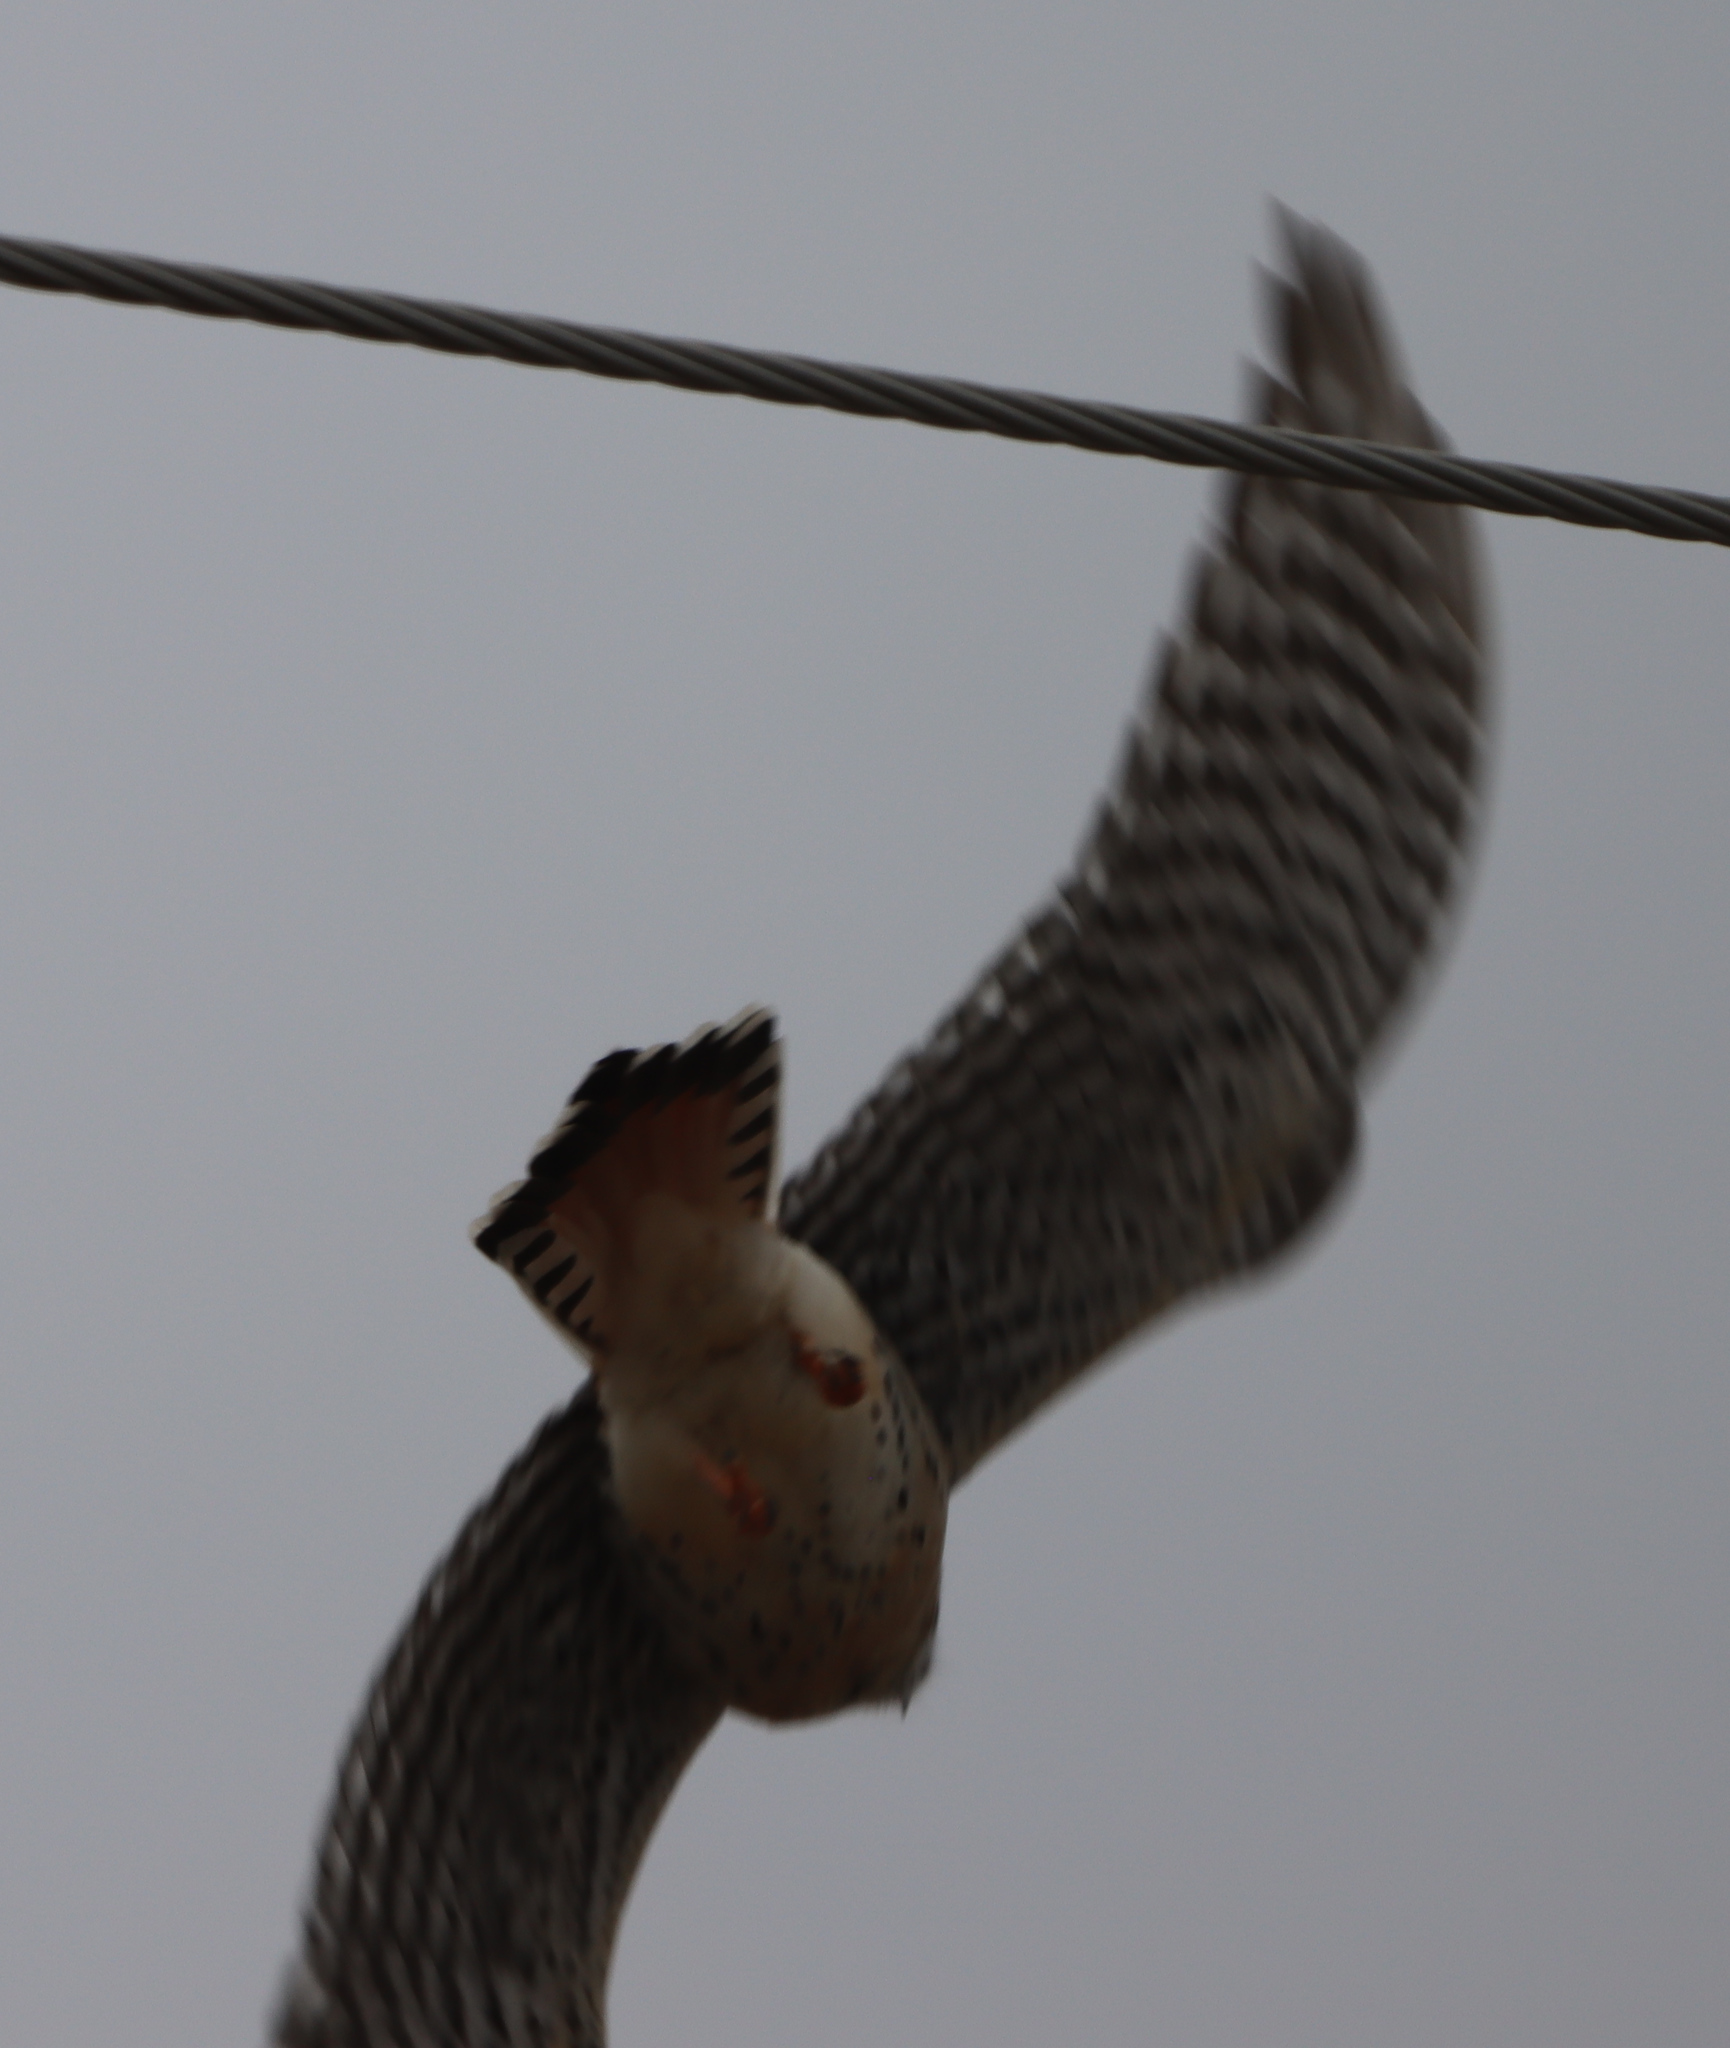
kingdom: Animalia
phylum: Chordata
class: Aves
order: Falconiformes
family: Falconidae
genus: Falco
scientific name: Falco sparverius
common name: American kestrel
